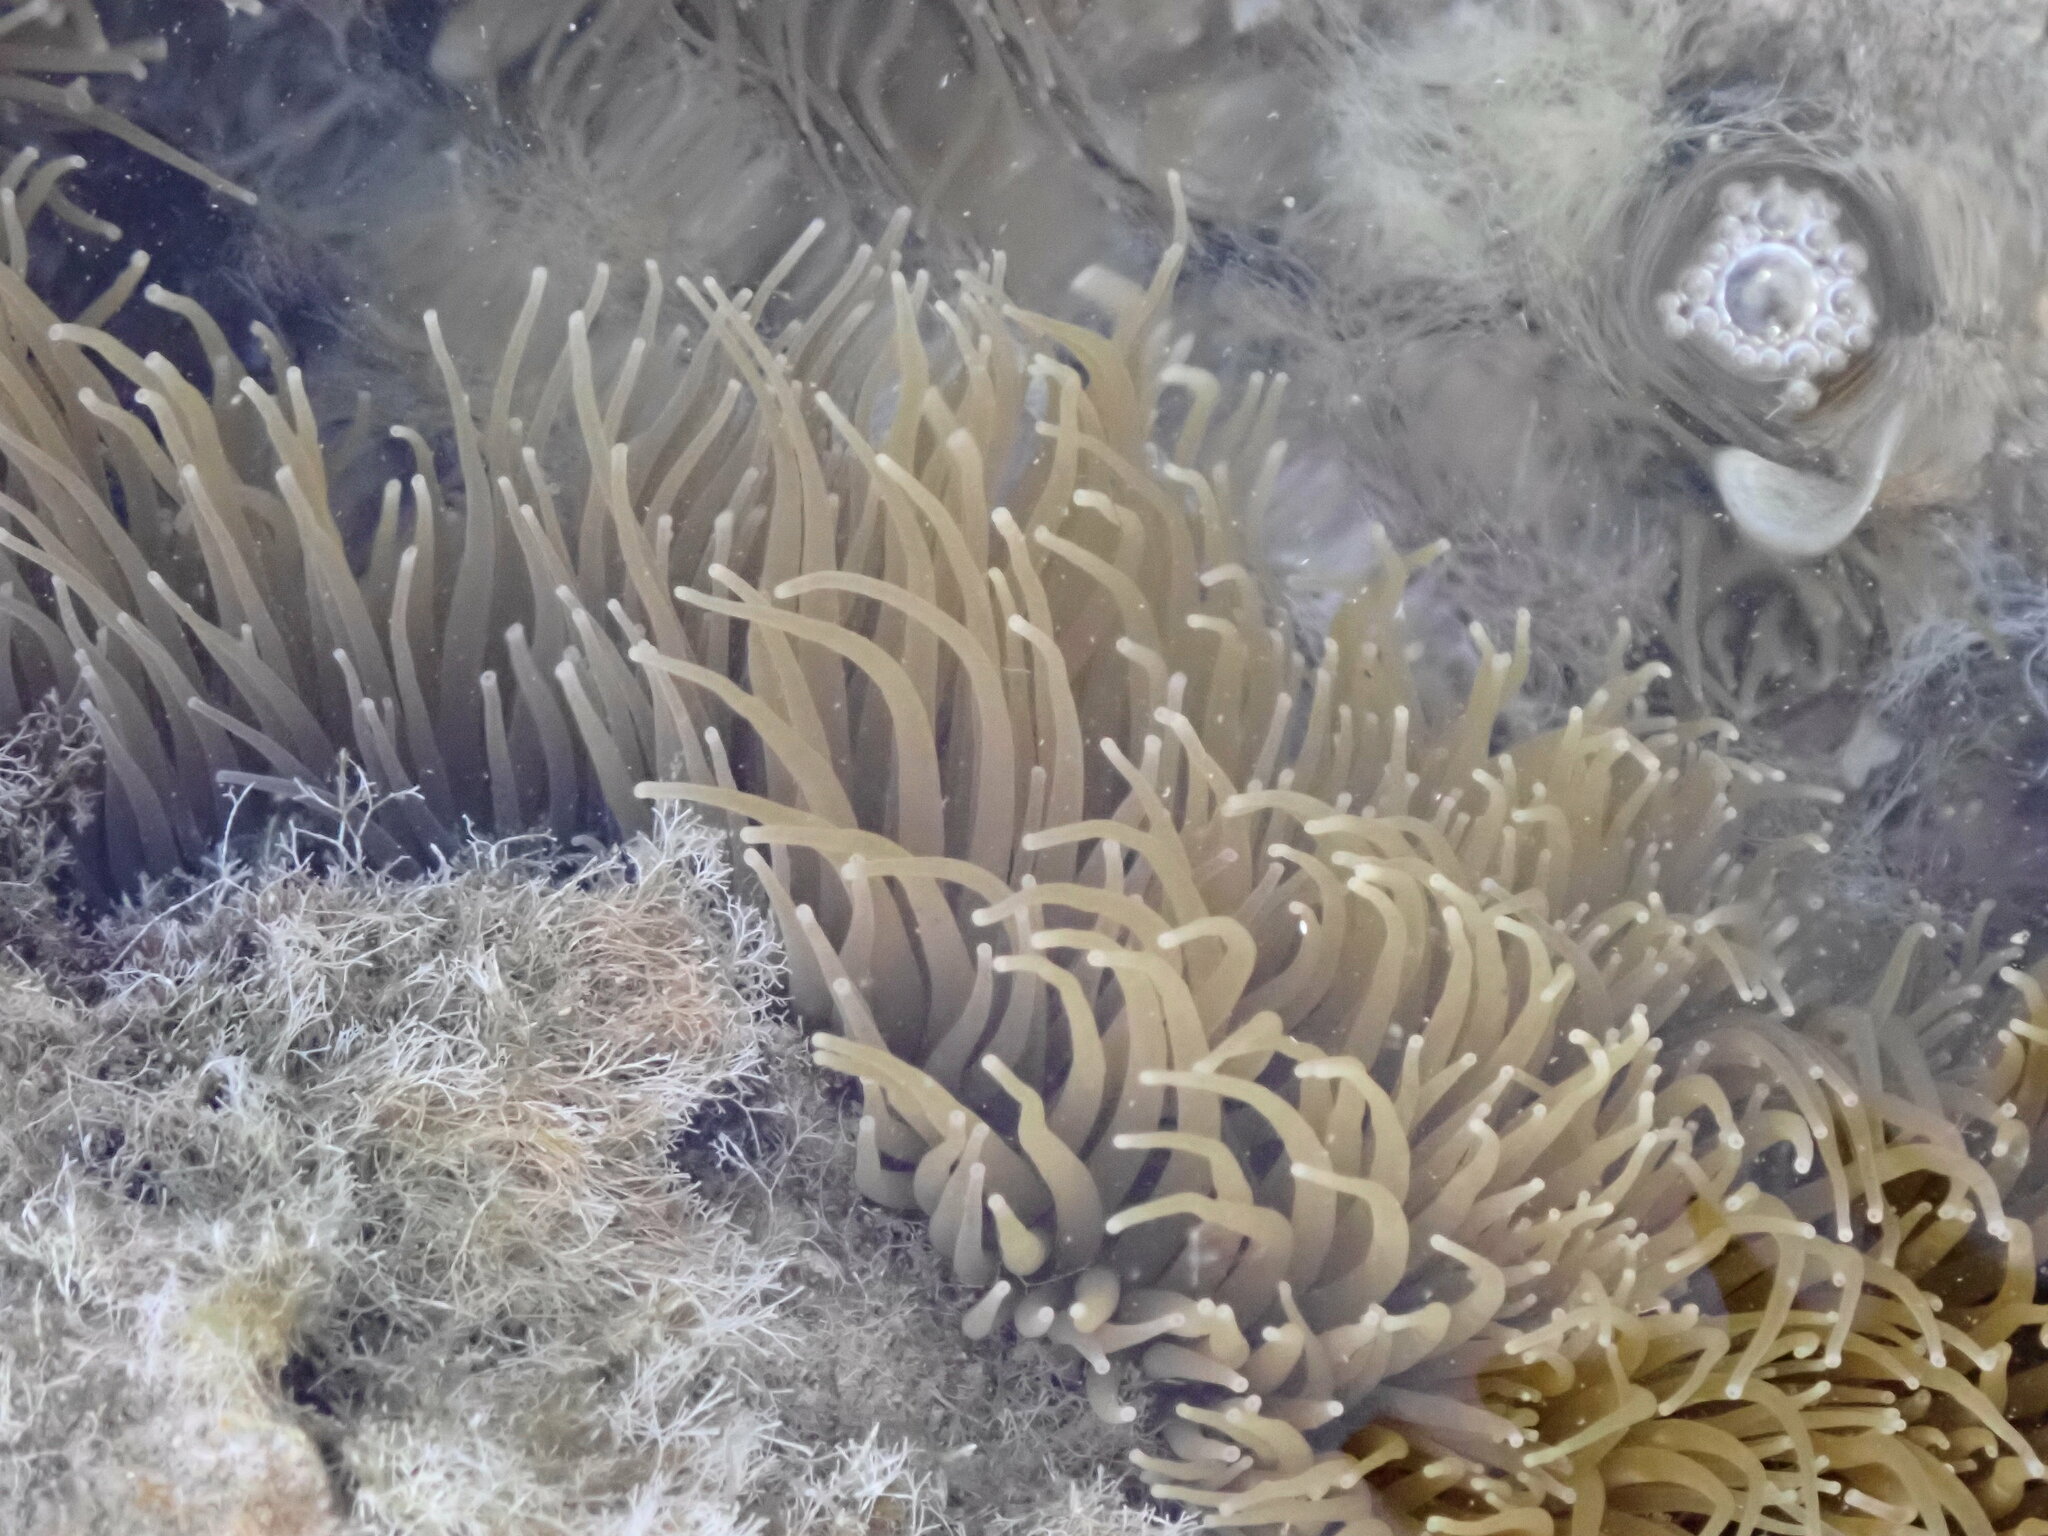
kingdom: Animalia
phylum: Cnidaria
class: Anthozoa
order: Actiniaria
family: Actiniidae
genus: Anemonia
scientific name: Anemonia viridis
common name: Snakelocks anemone
